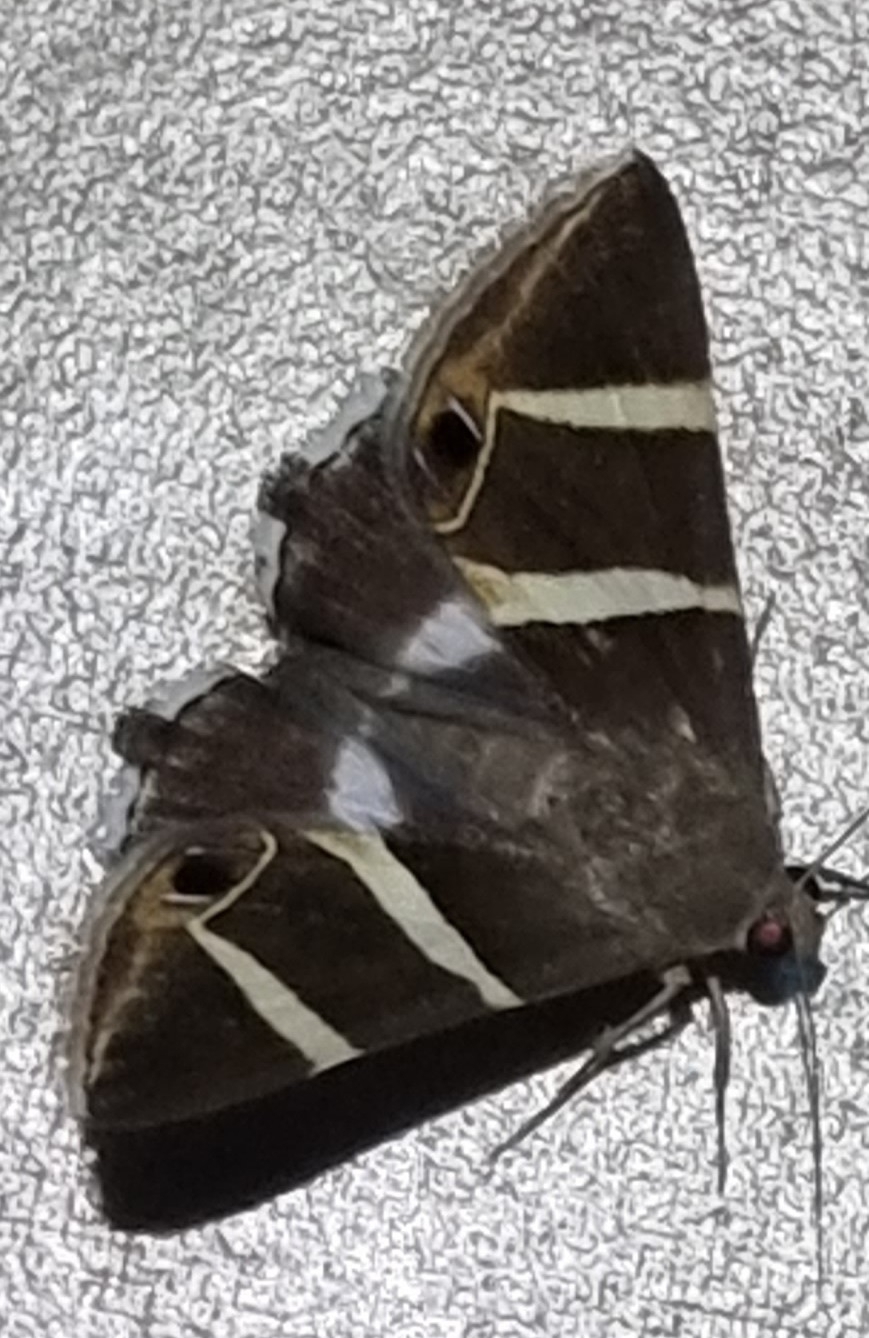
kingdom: Animalia
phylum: Arthropoda
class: Insecta
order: Lepidoptera
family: Erebidae
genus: Grammodes
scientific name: Grammodes oculicola
